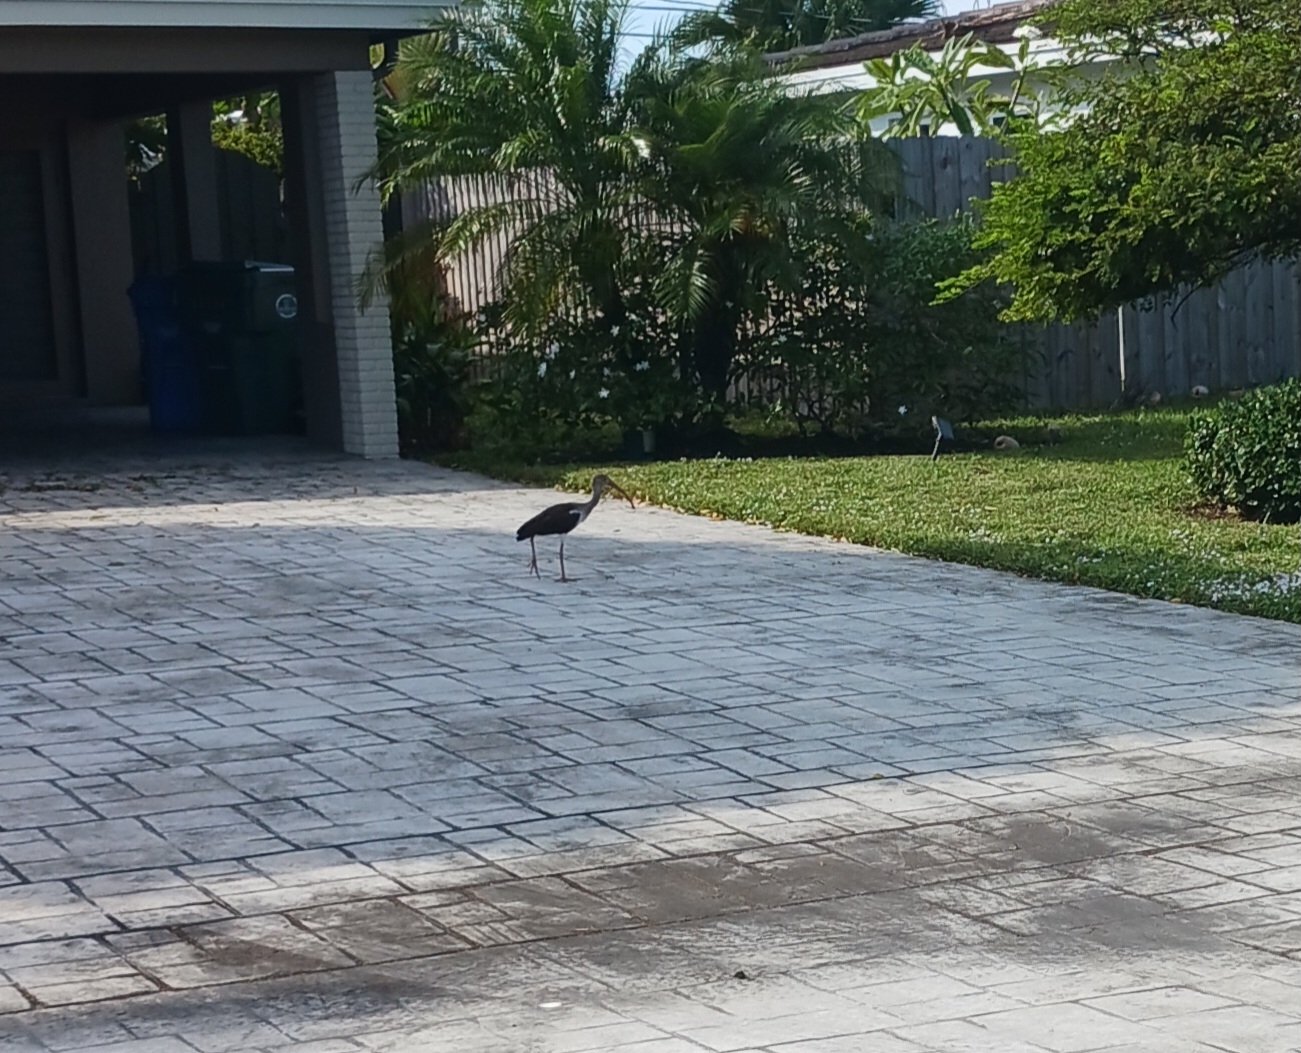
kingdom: Animalia
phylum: Chordata
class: Aves
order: Pelecaniformes
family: Threskiornithidae
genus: Eudocimus
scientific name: Eudocimus albus
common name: White ibis
